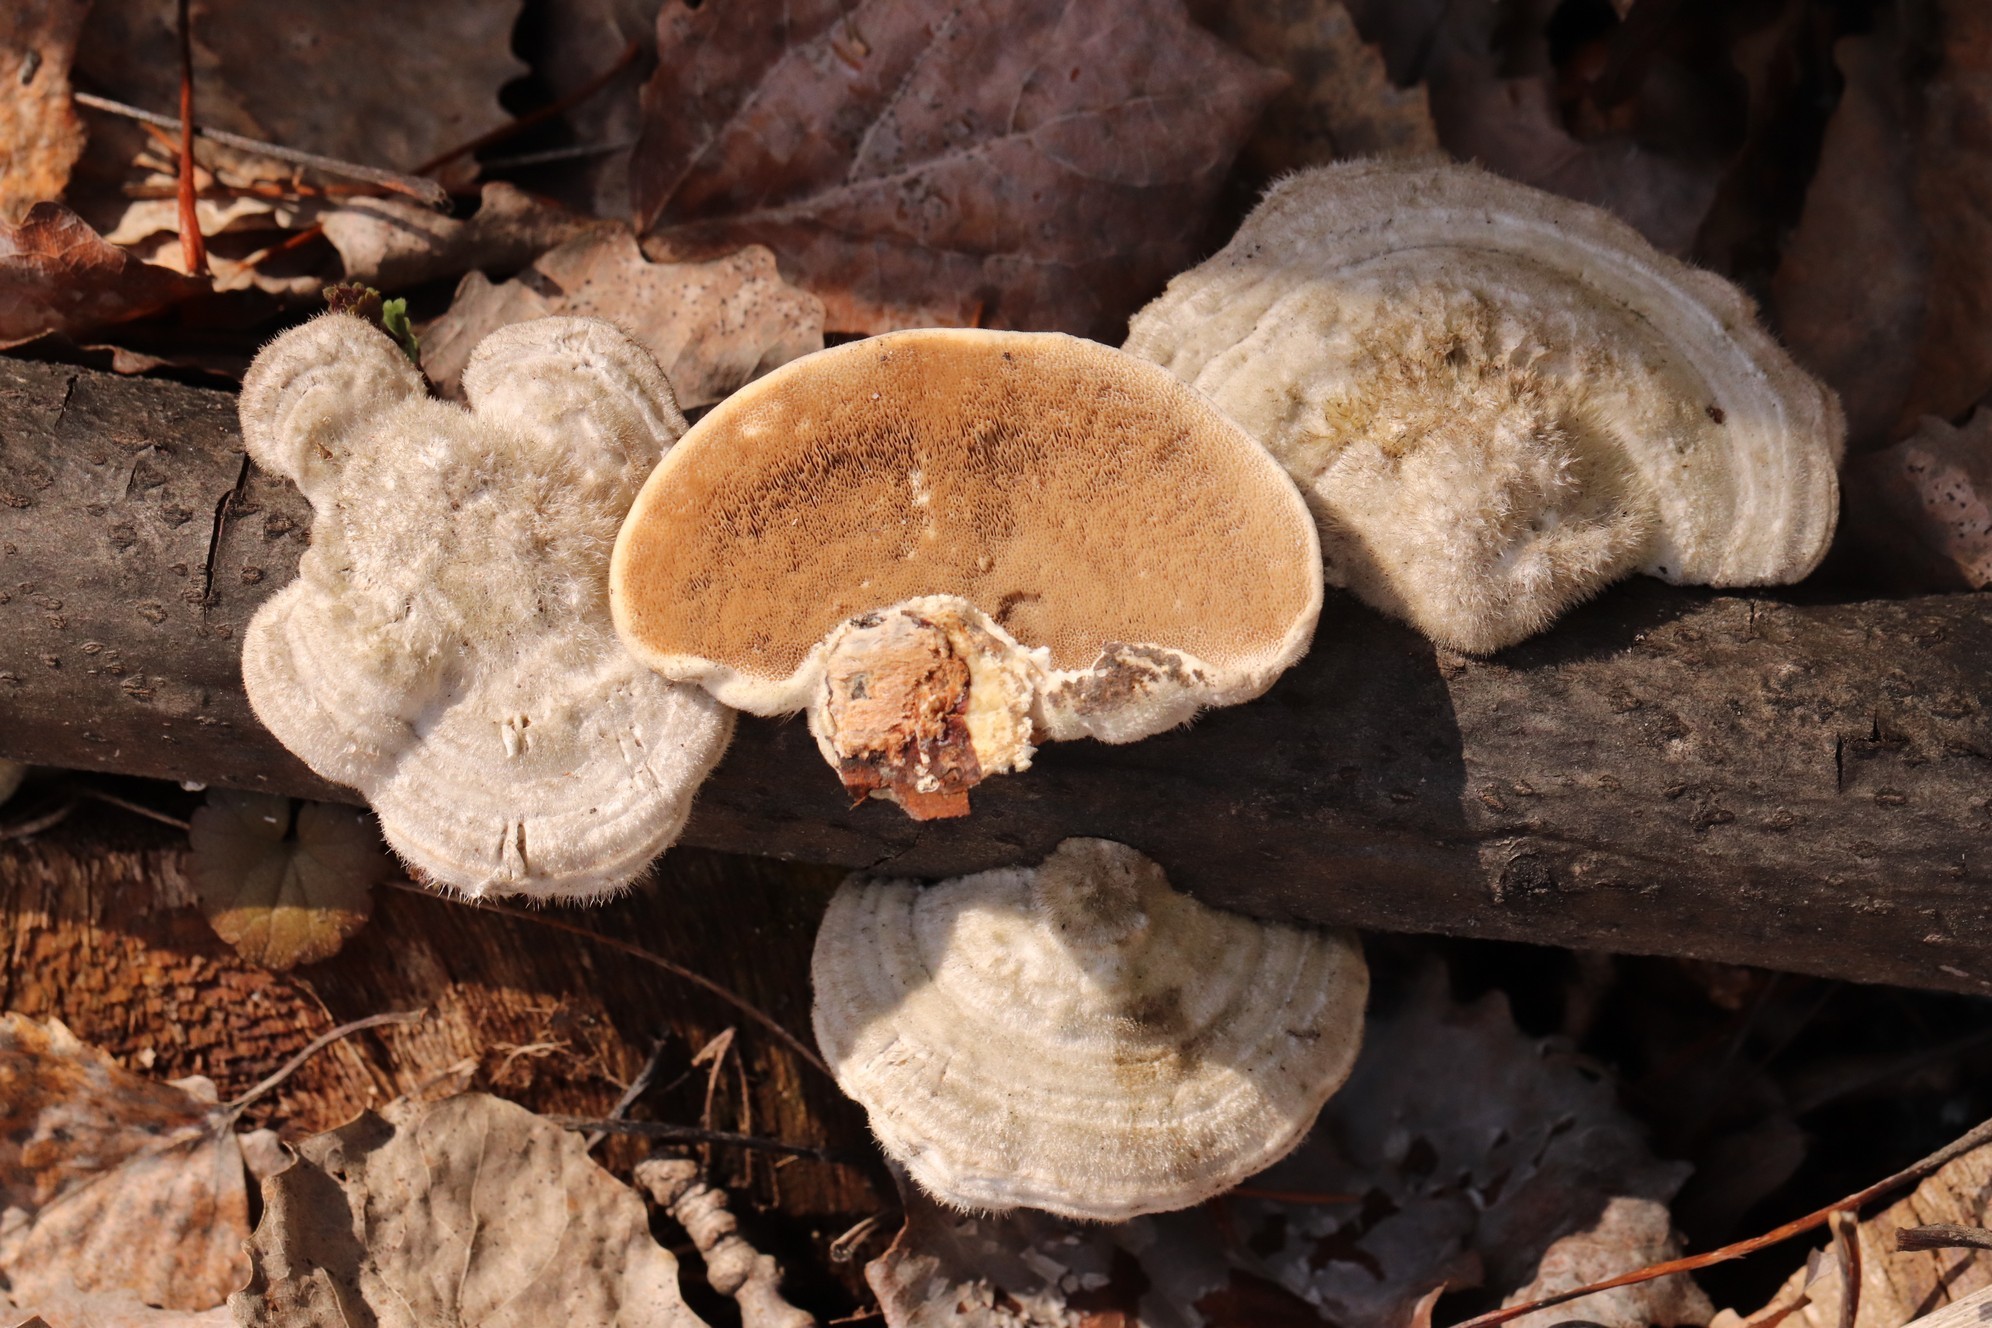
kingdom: Fungi
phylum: Basidiomycota
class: Agaricomycetes
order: Polyporales
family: Polyporaceae
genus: Trametes
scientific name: Trametes hirsuta
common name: Hairy bracket
